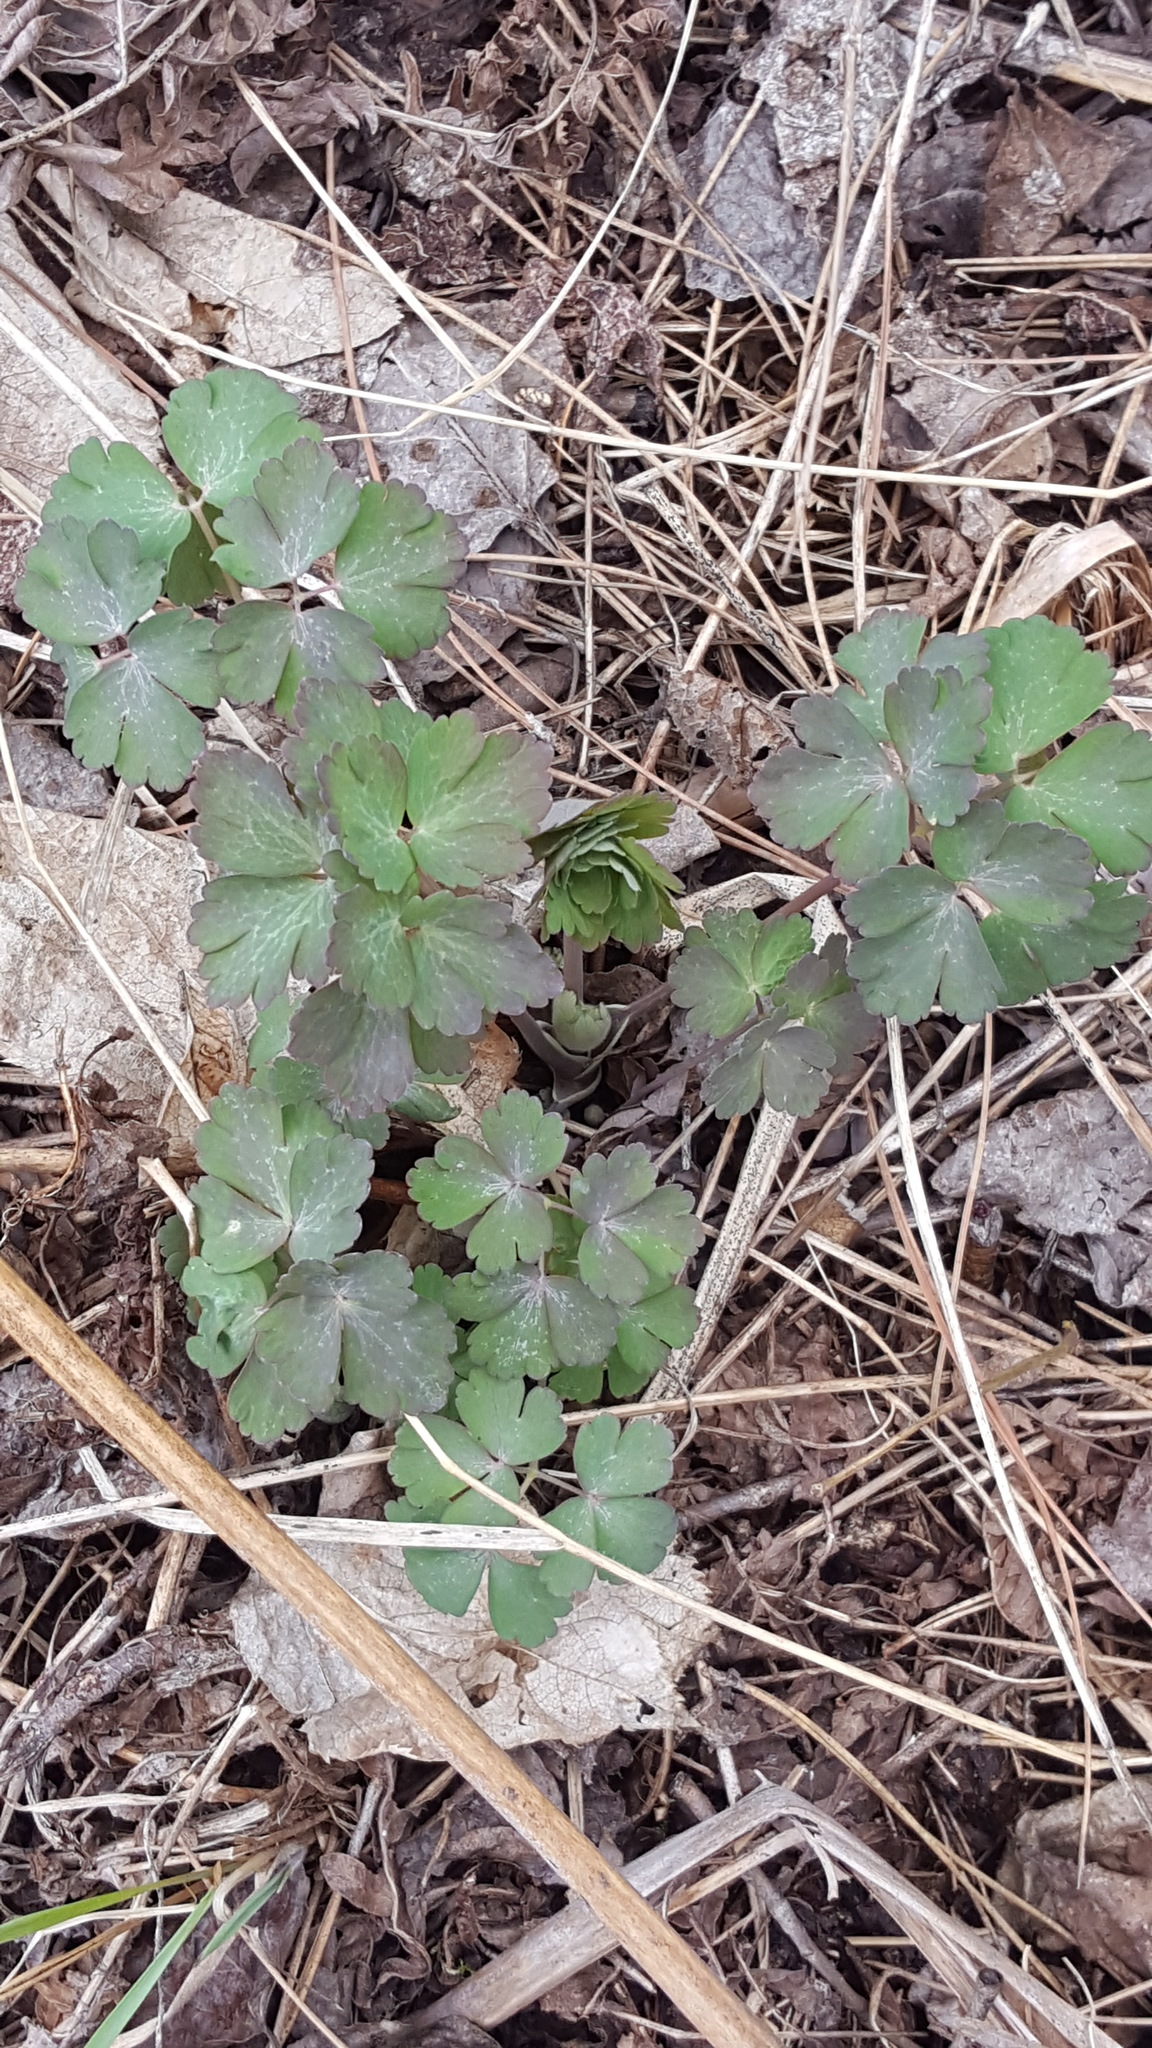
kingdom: Plantae
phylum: Tracheophyta
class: Magnoliopsida
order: Ranunculales
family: Ranunculaceae
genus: Aquilegia
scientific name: Aquilegia canadensis
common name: American columbine
